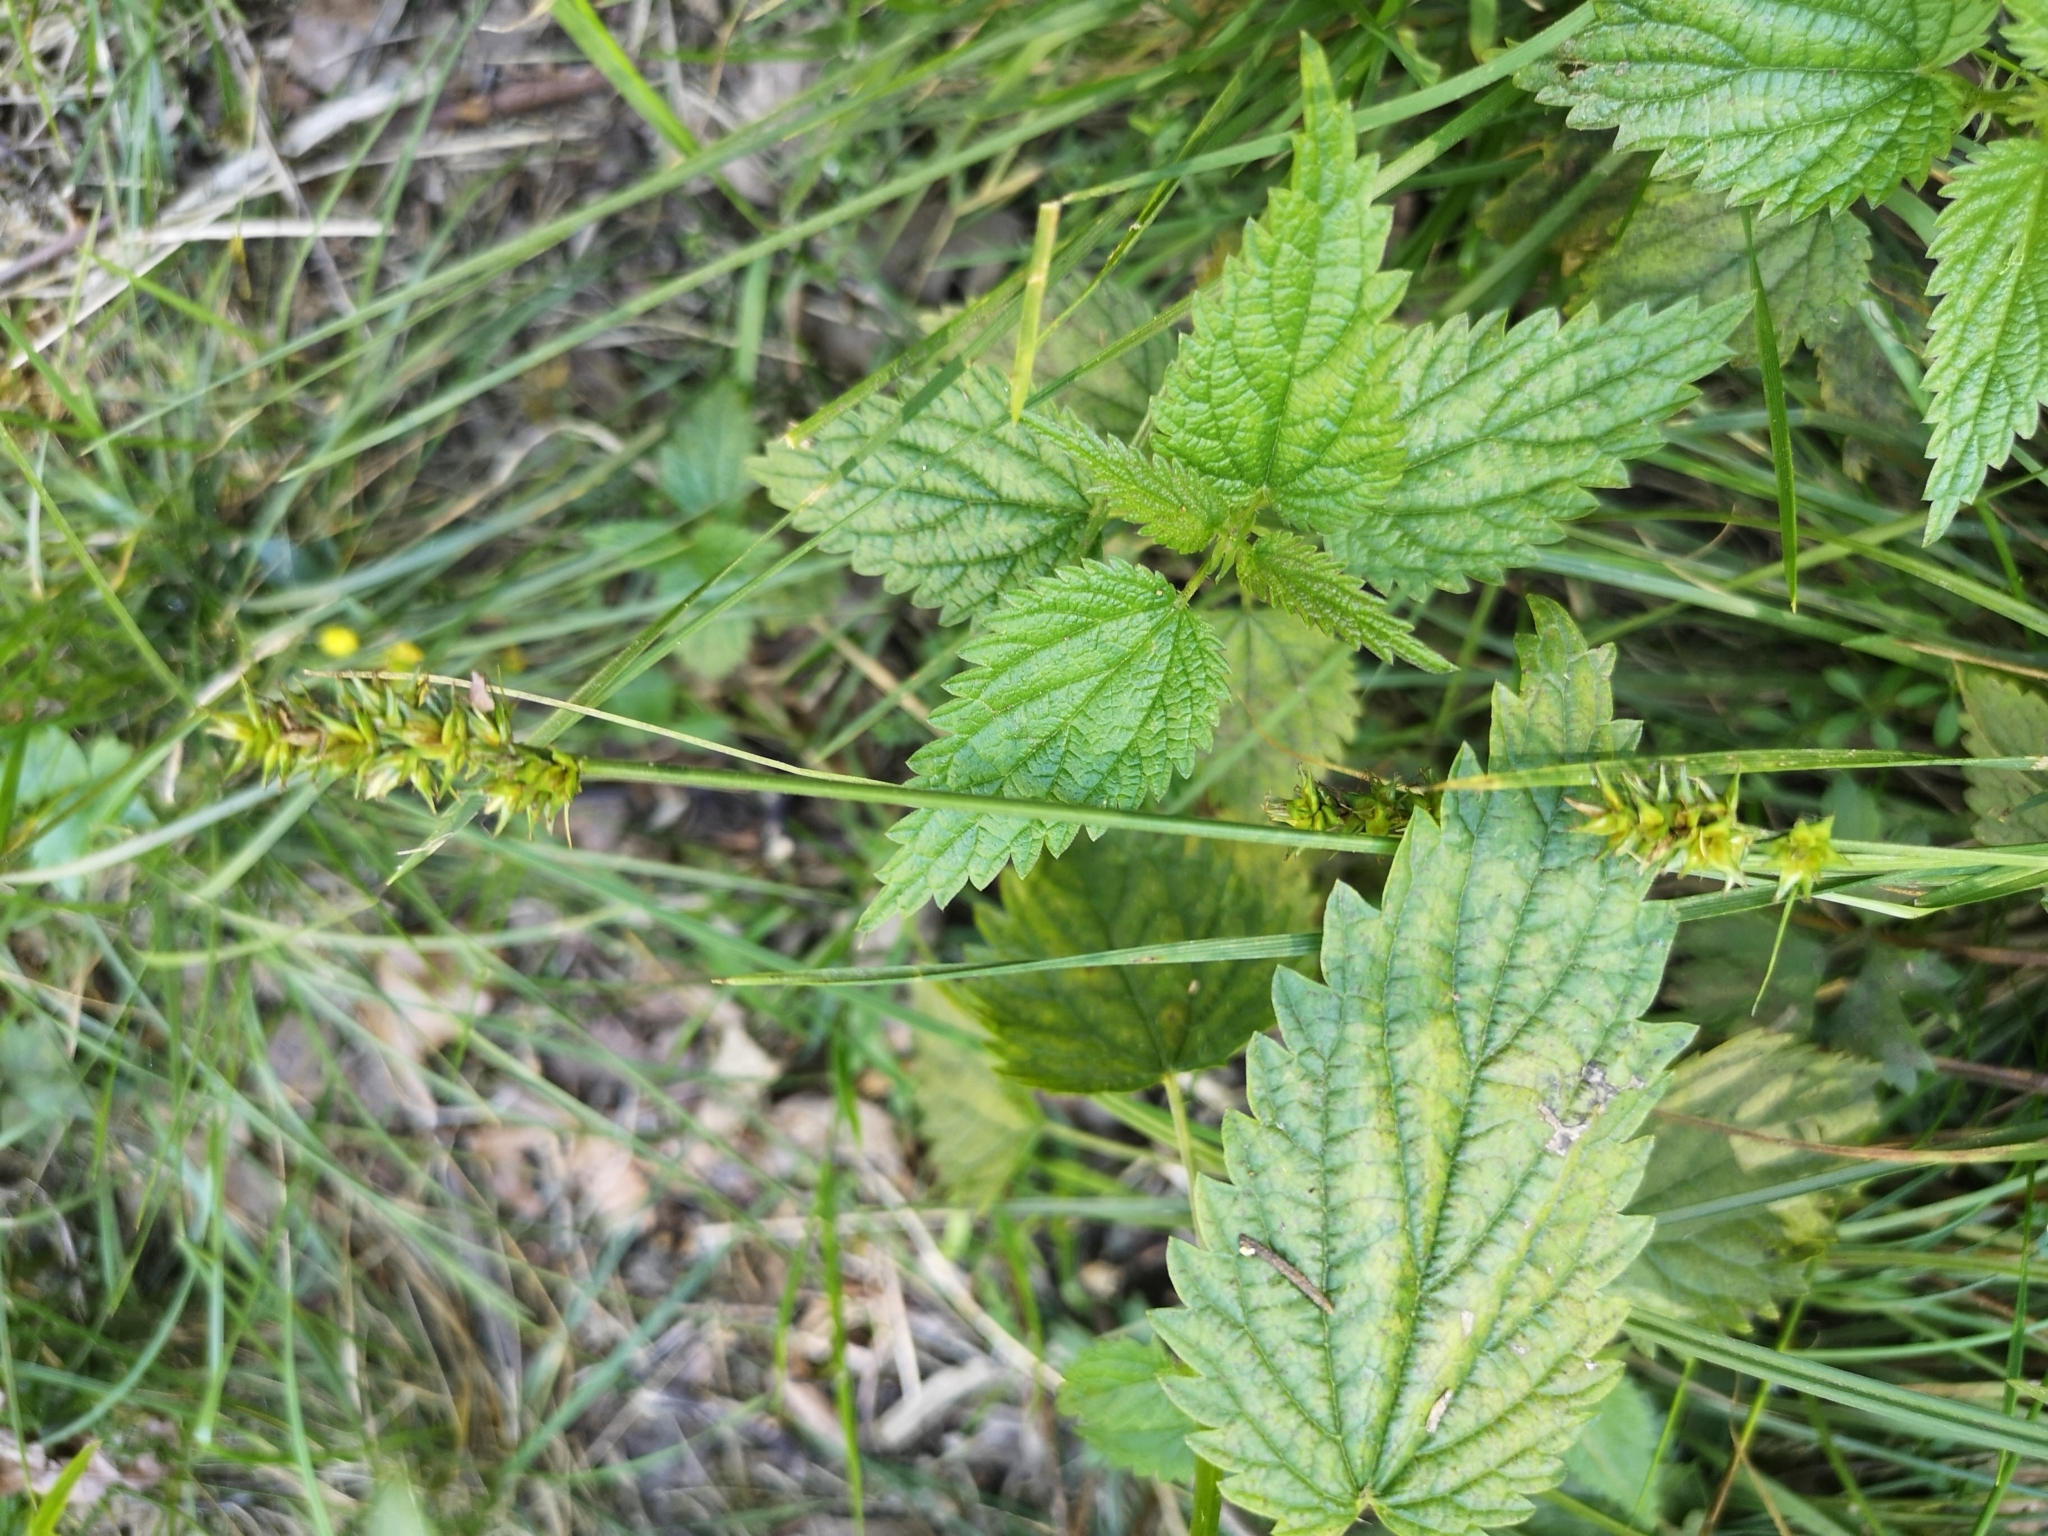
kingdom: Plantae
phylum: Tracheophyta
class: Liliopsida
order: Poales
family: Cyperaceae
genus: Carex
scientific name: Carex spicata
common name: Spiked sedge
